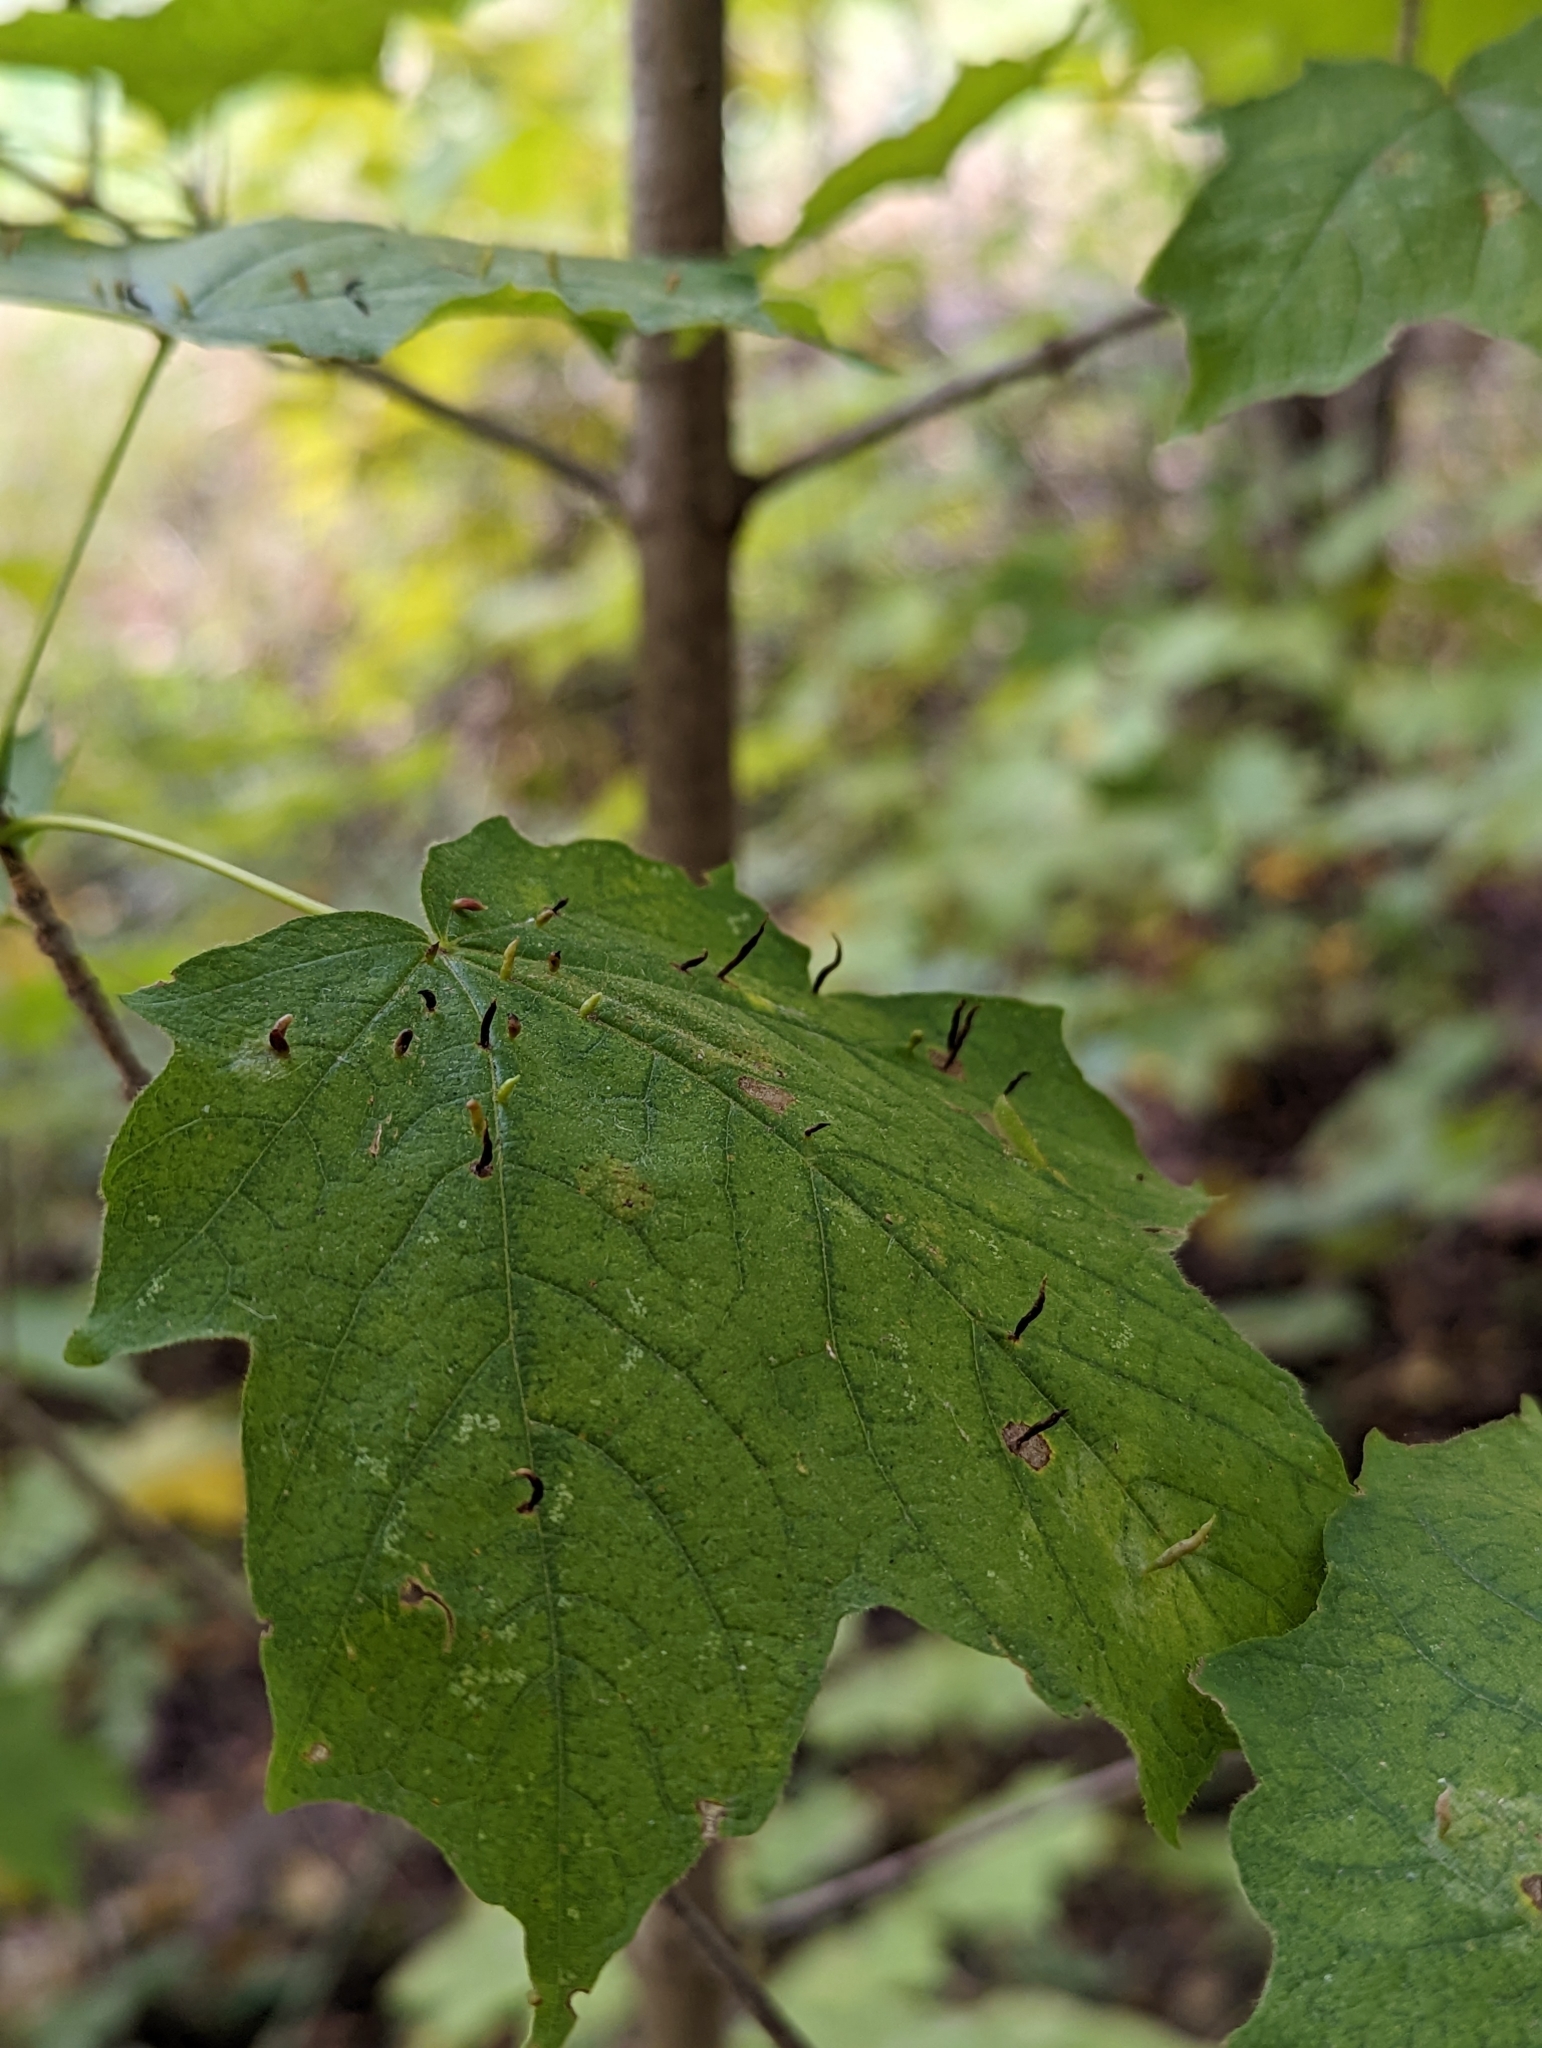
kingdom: Animalia
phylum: Arthropoda
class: Arachnida
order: Trombidiformes
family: Eriophyidae
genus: Vasates
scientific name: Vasates aceriscrumena
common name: Maple spindle gall mite
